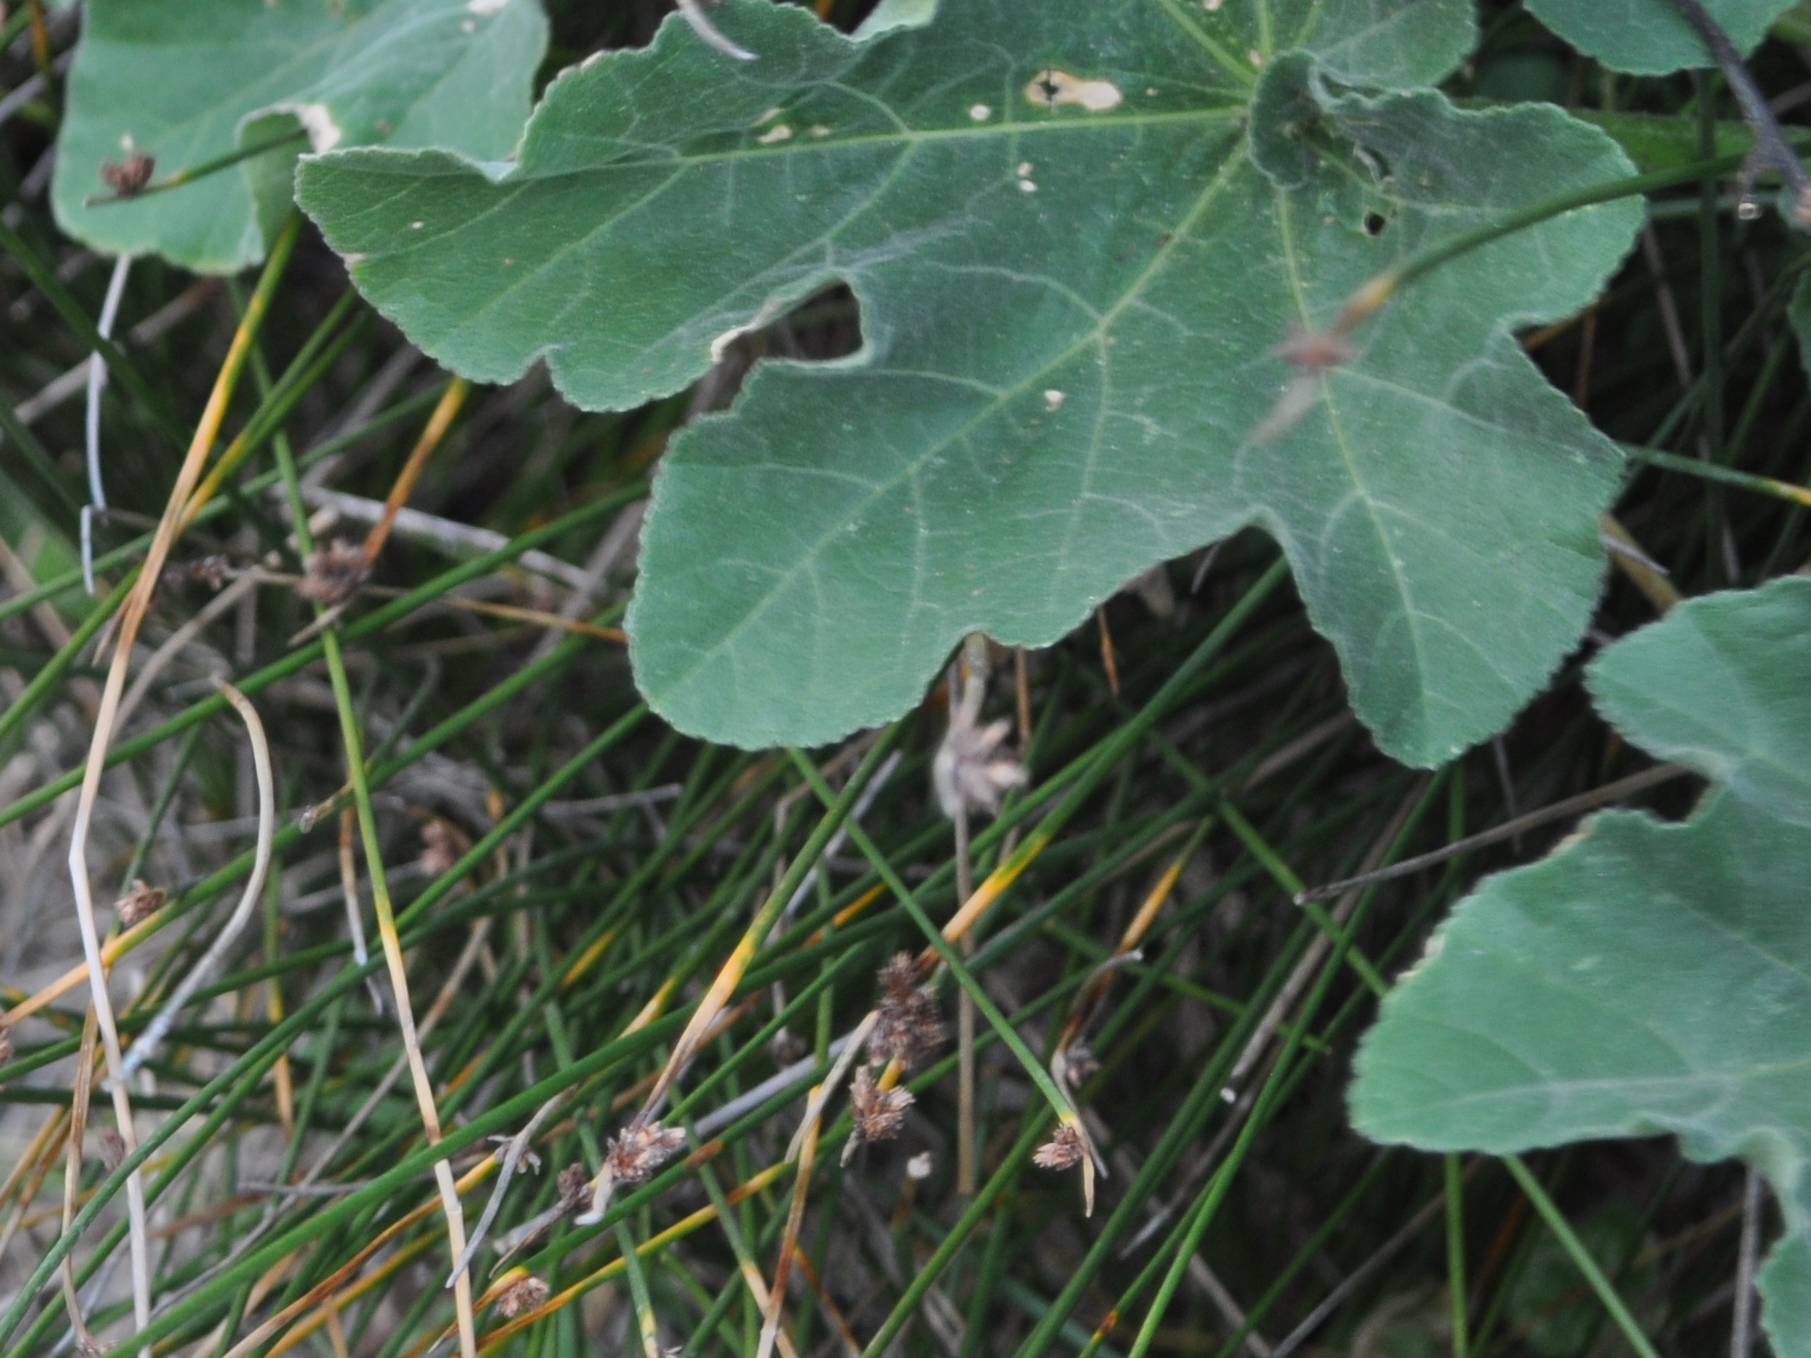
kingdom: Plantae
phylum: Tracheophyta
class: Magnoliopsida
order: Malvales
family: Malvaceae
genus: Malva
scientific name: Malva arborea
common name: Tree mallow
